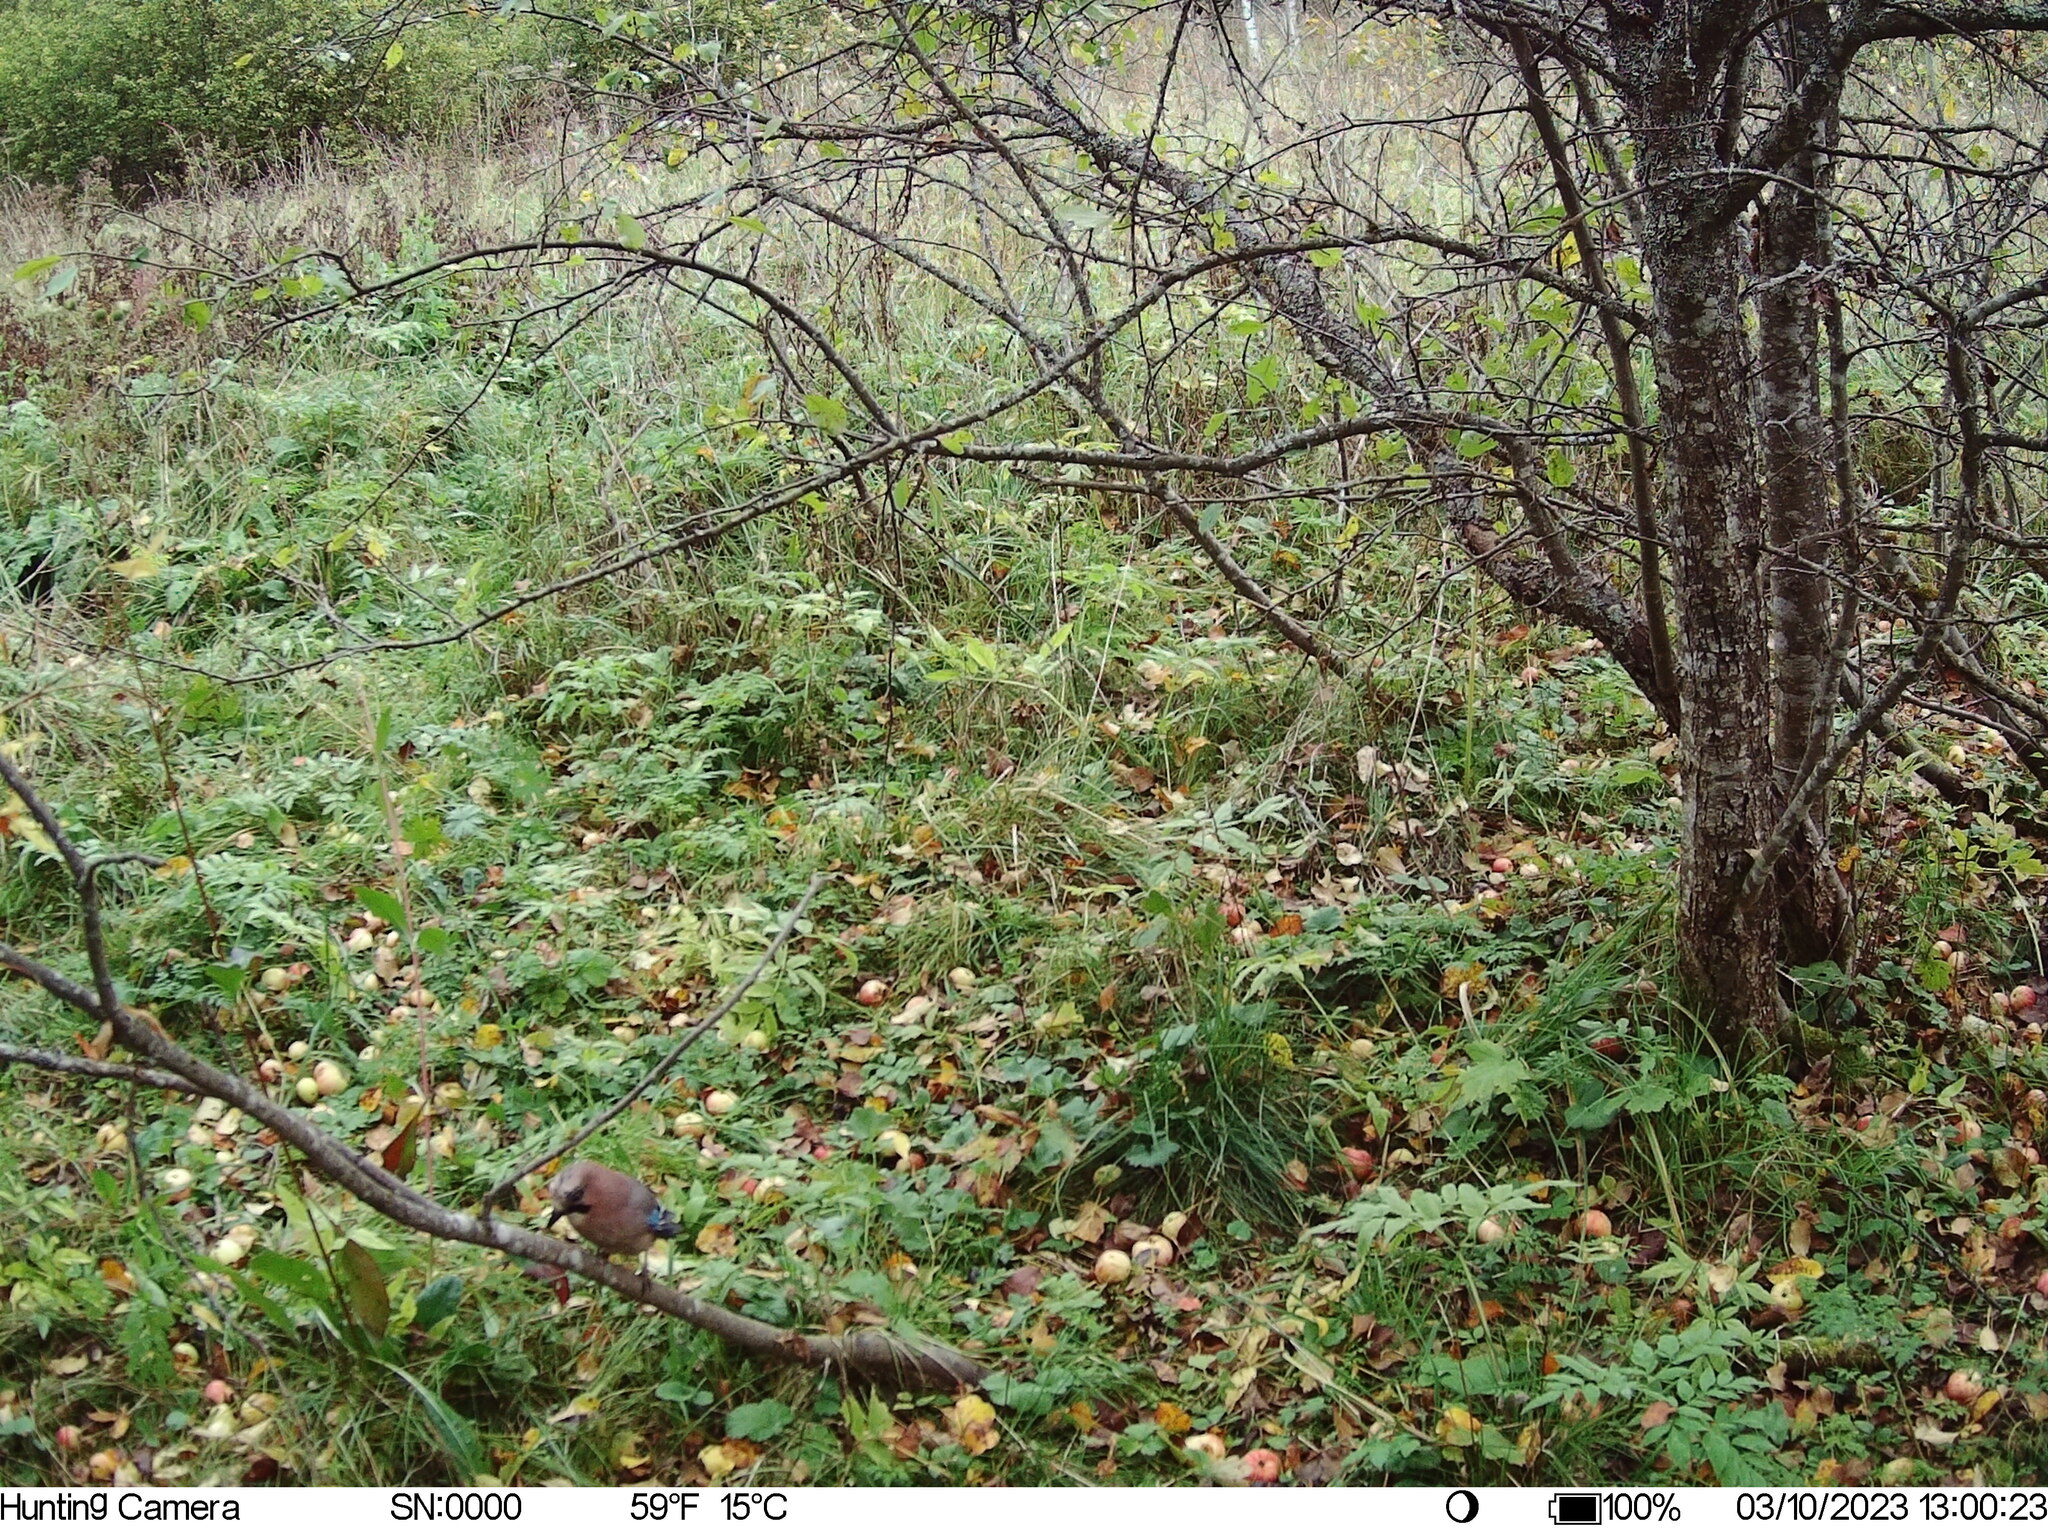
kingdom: Animalia
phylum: Chordata
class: Aves
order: Passeriformes
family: Corvidae
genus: Garrulus
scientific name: Garrulus glandarius
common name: Eurasian jay
